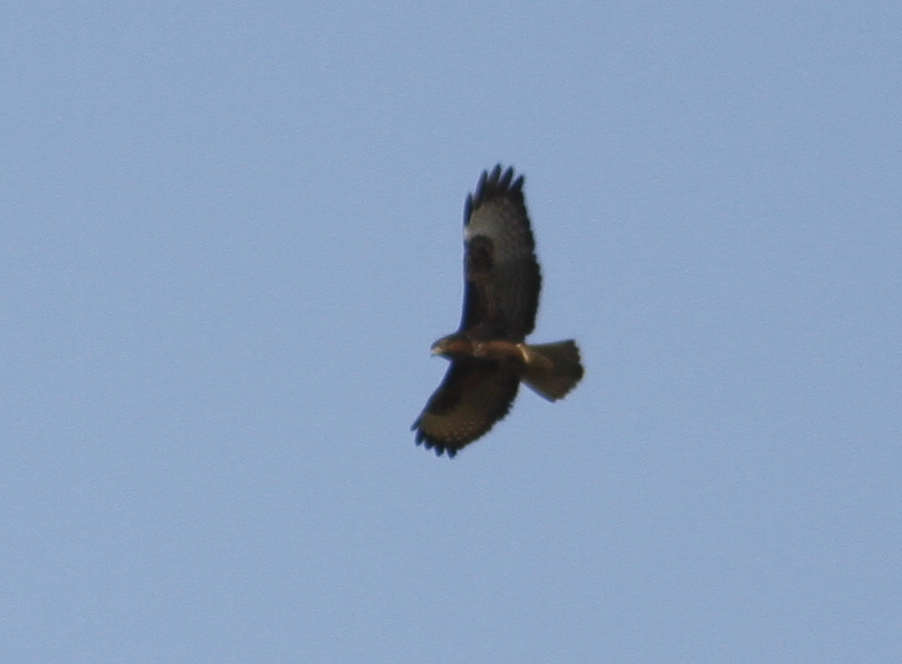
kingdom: Animalia
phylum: Chordata
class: Aves
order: Accipitriformes
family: Accipitridae
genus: Buteo
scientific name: Buteo buteo
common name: Common buzzard
